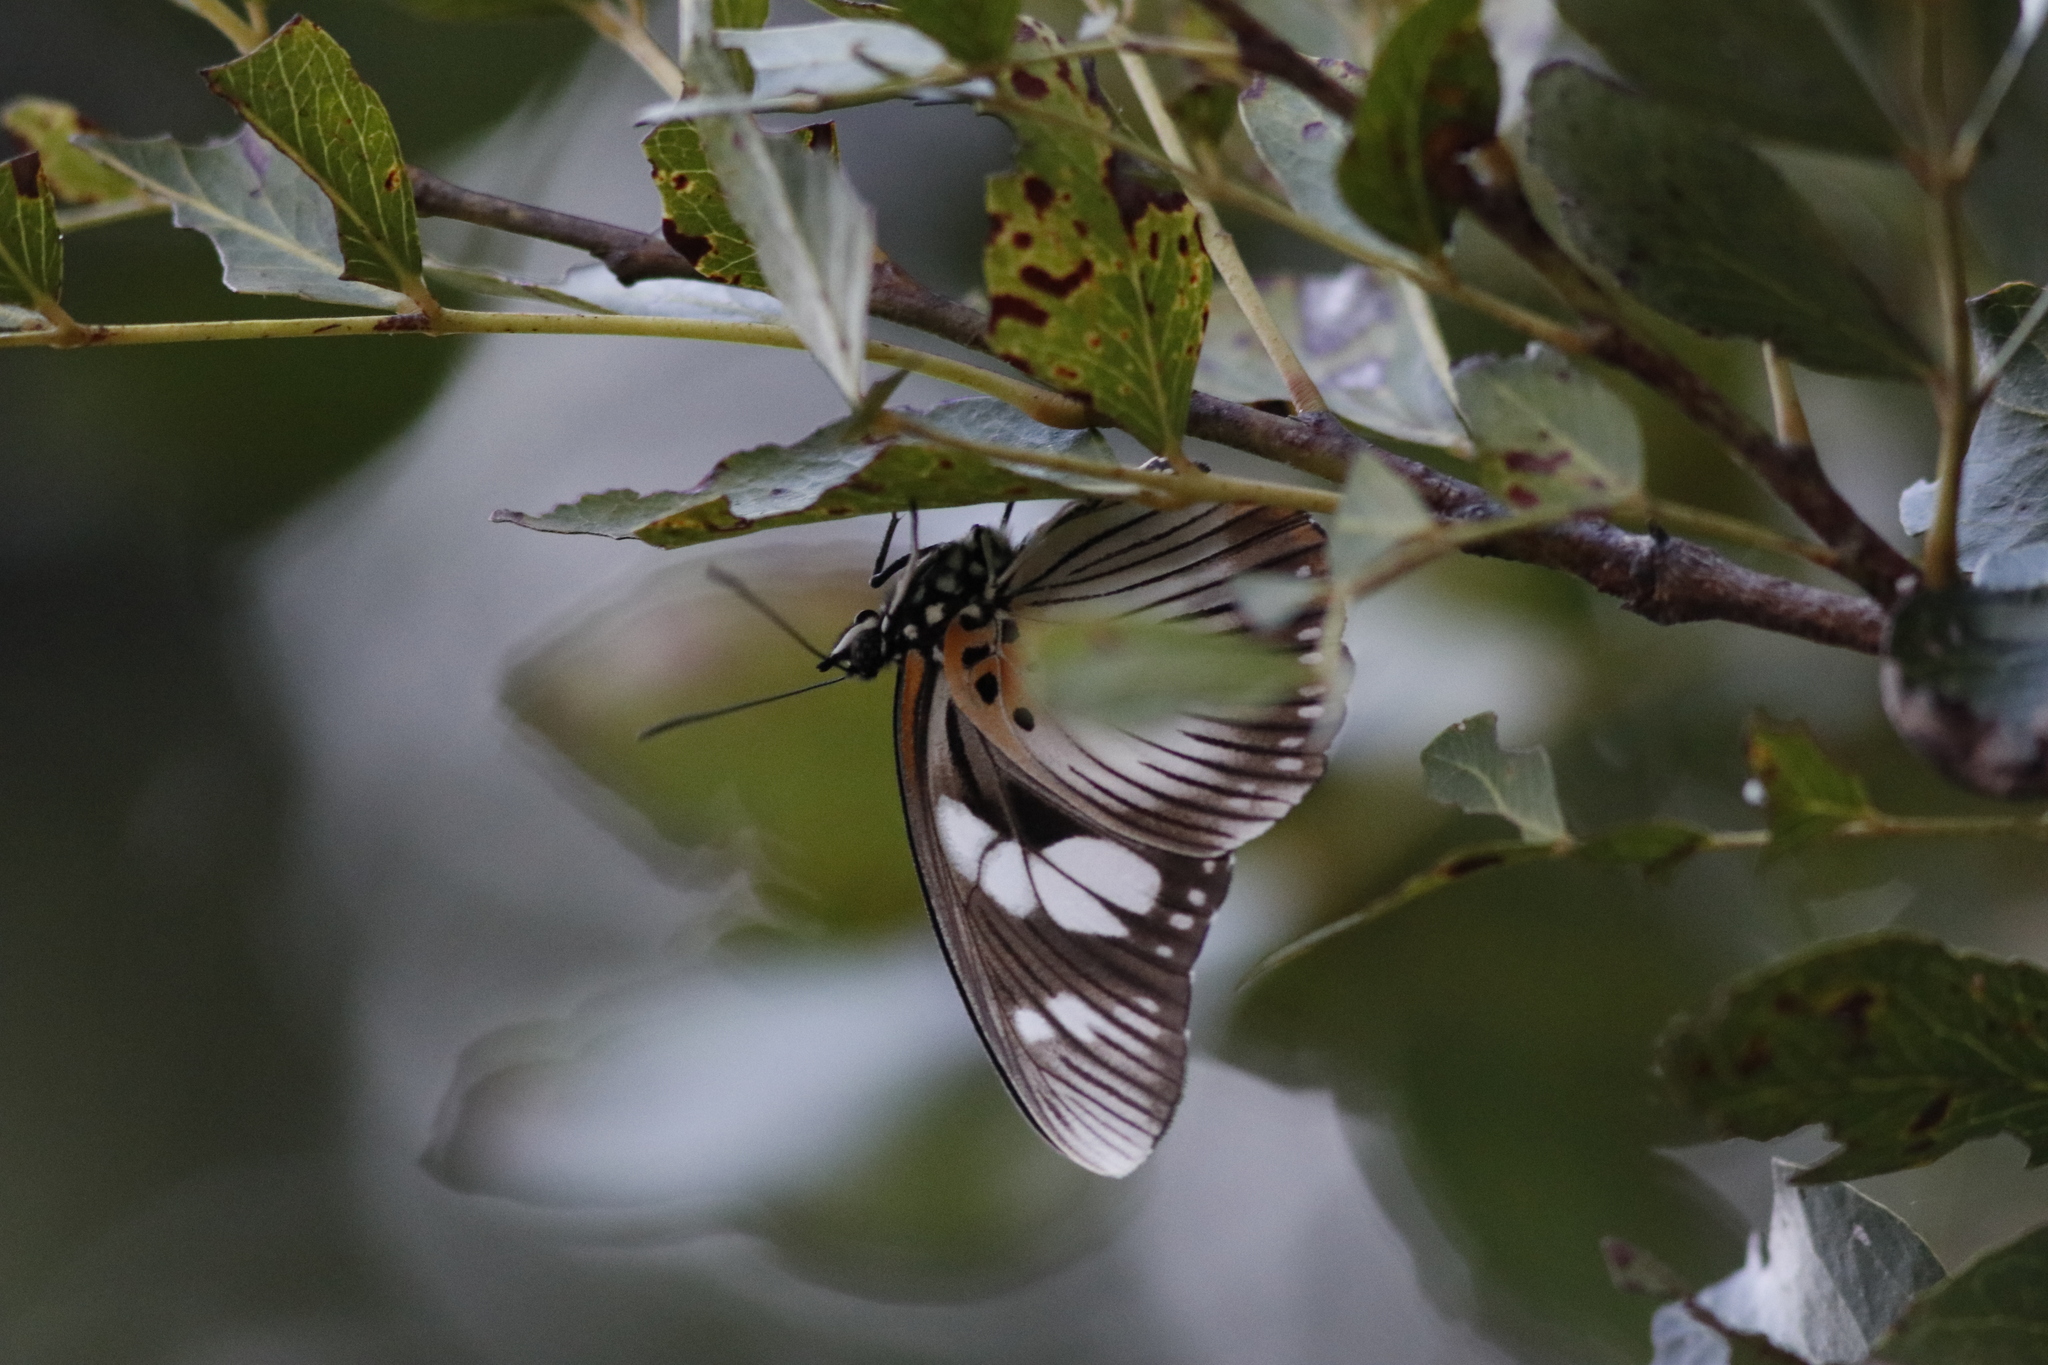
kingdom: Animalia
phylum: Arthropoda
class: Insecta
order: Lepidoptera
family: Nymphalidae
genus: Chloropoea
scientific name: Chloropoea lucretia
